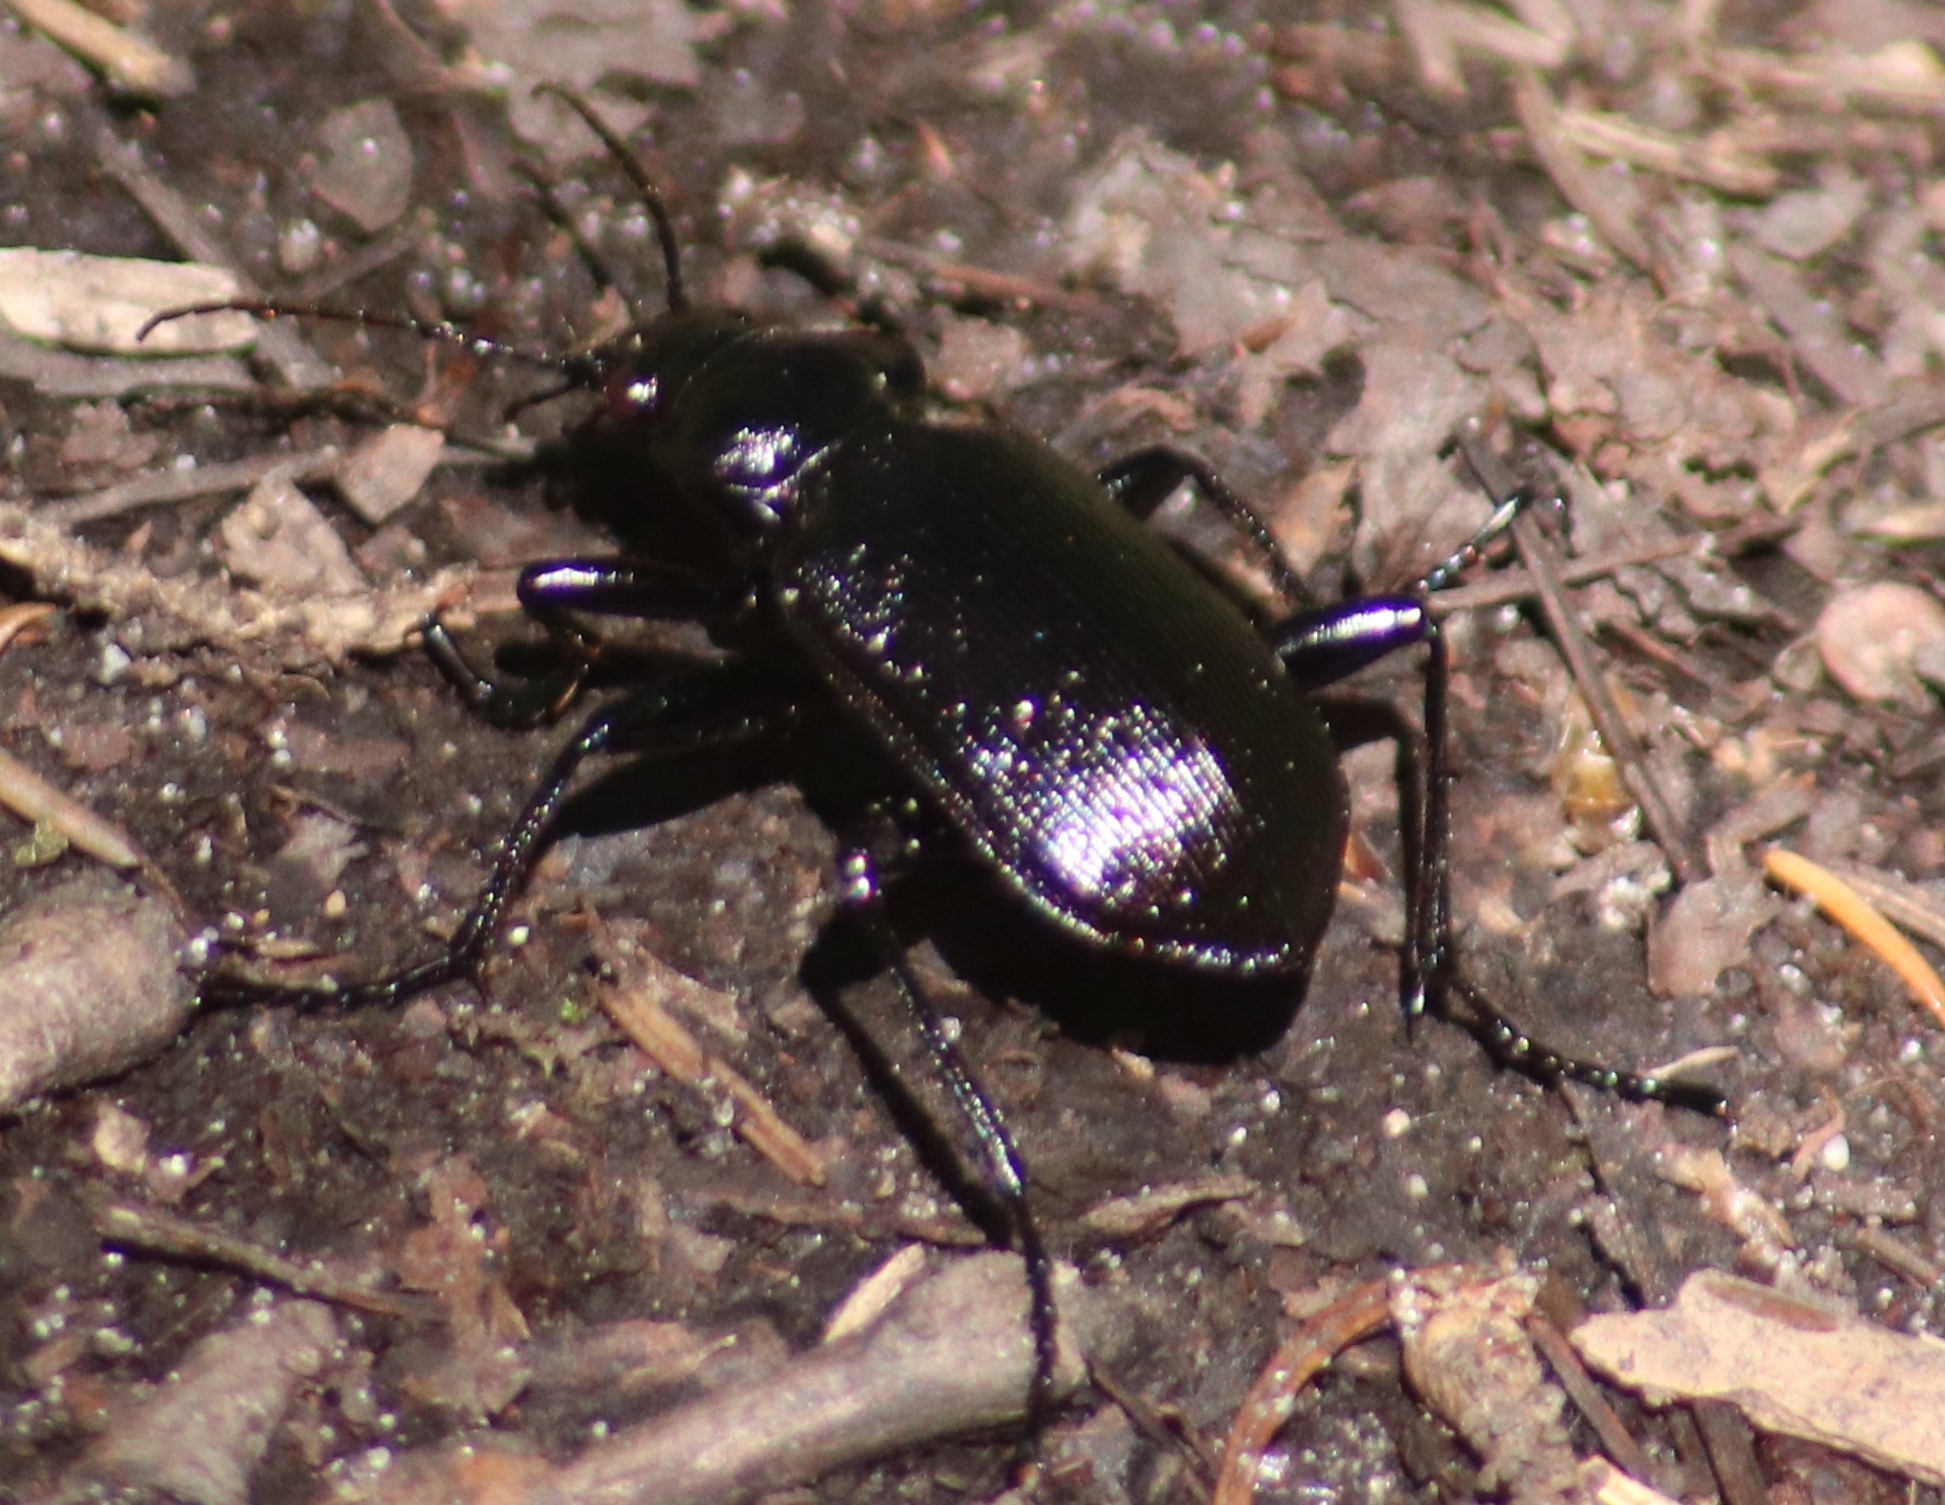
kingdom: Animalia
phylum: Arthropoda
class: Insecta
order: Coleoptera
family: Carabidae
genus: Calosoma
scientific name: Calosoma frigidum
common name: Cold-country caterpillar hunter
